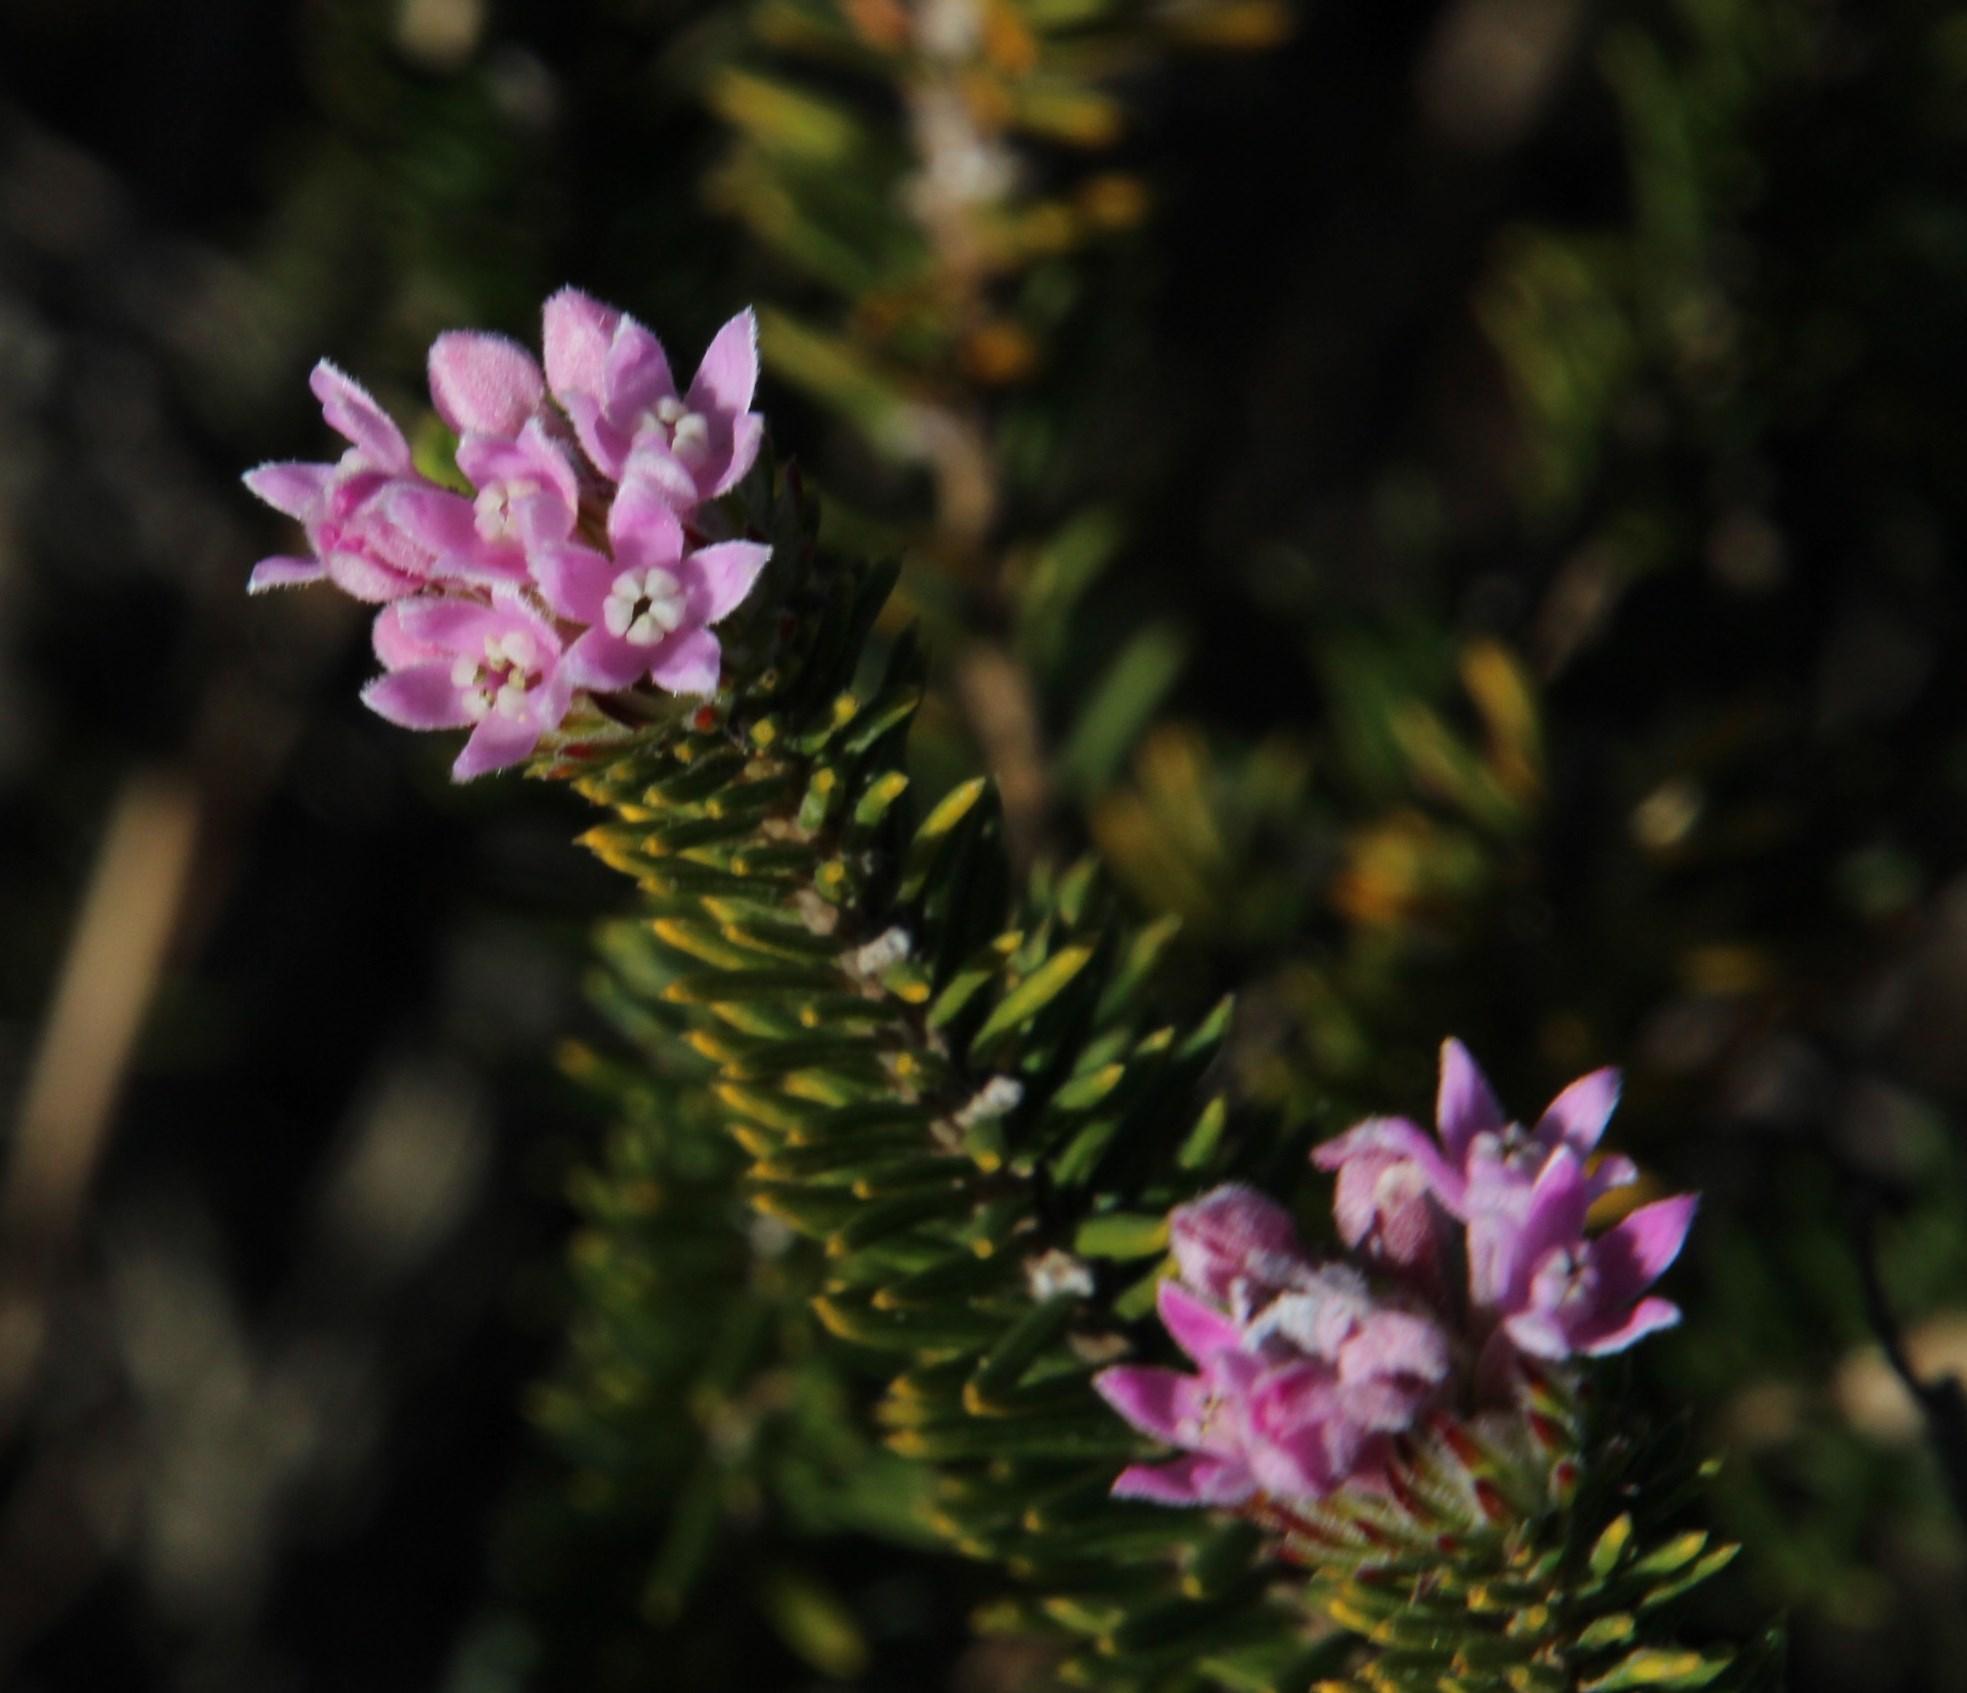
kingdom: Plantae
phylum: Tracheophyta
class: Magnoliopsida
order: Rosales
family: Rhamnaceae
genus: Phylica
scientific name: Phylica gnidioides
